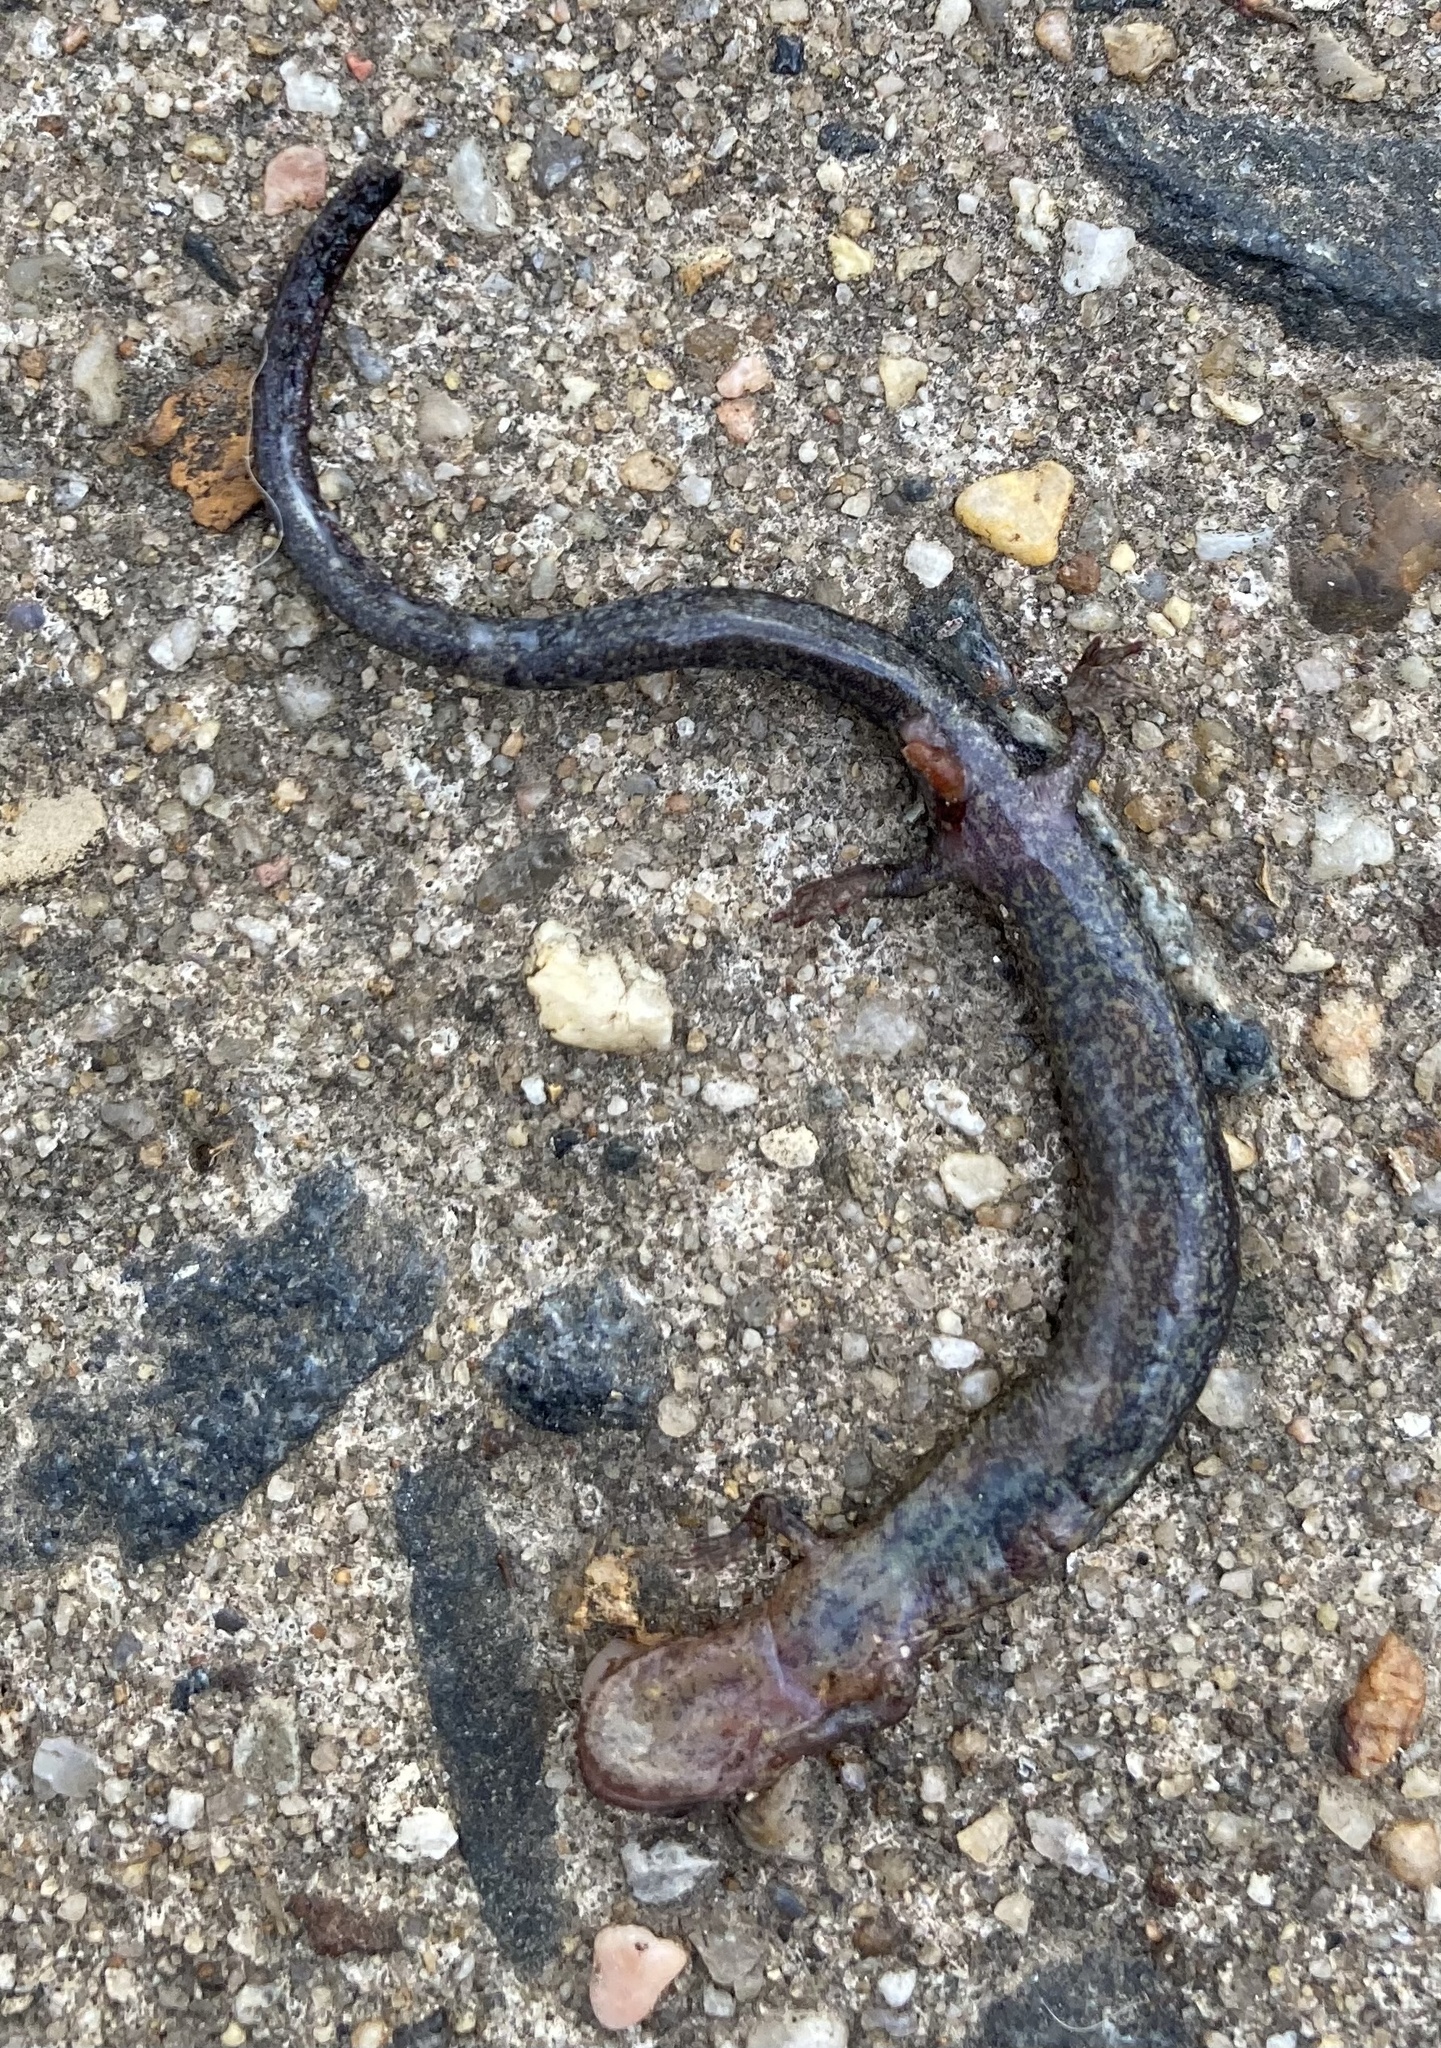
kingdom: Animalia
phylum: Chordata
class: Amphibia
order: Caudata
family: Plethodontidae
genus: Plethodon
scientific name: Plethodon cinereus
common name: Redback salamander
